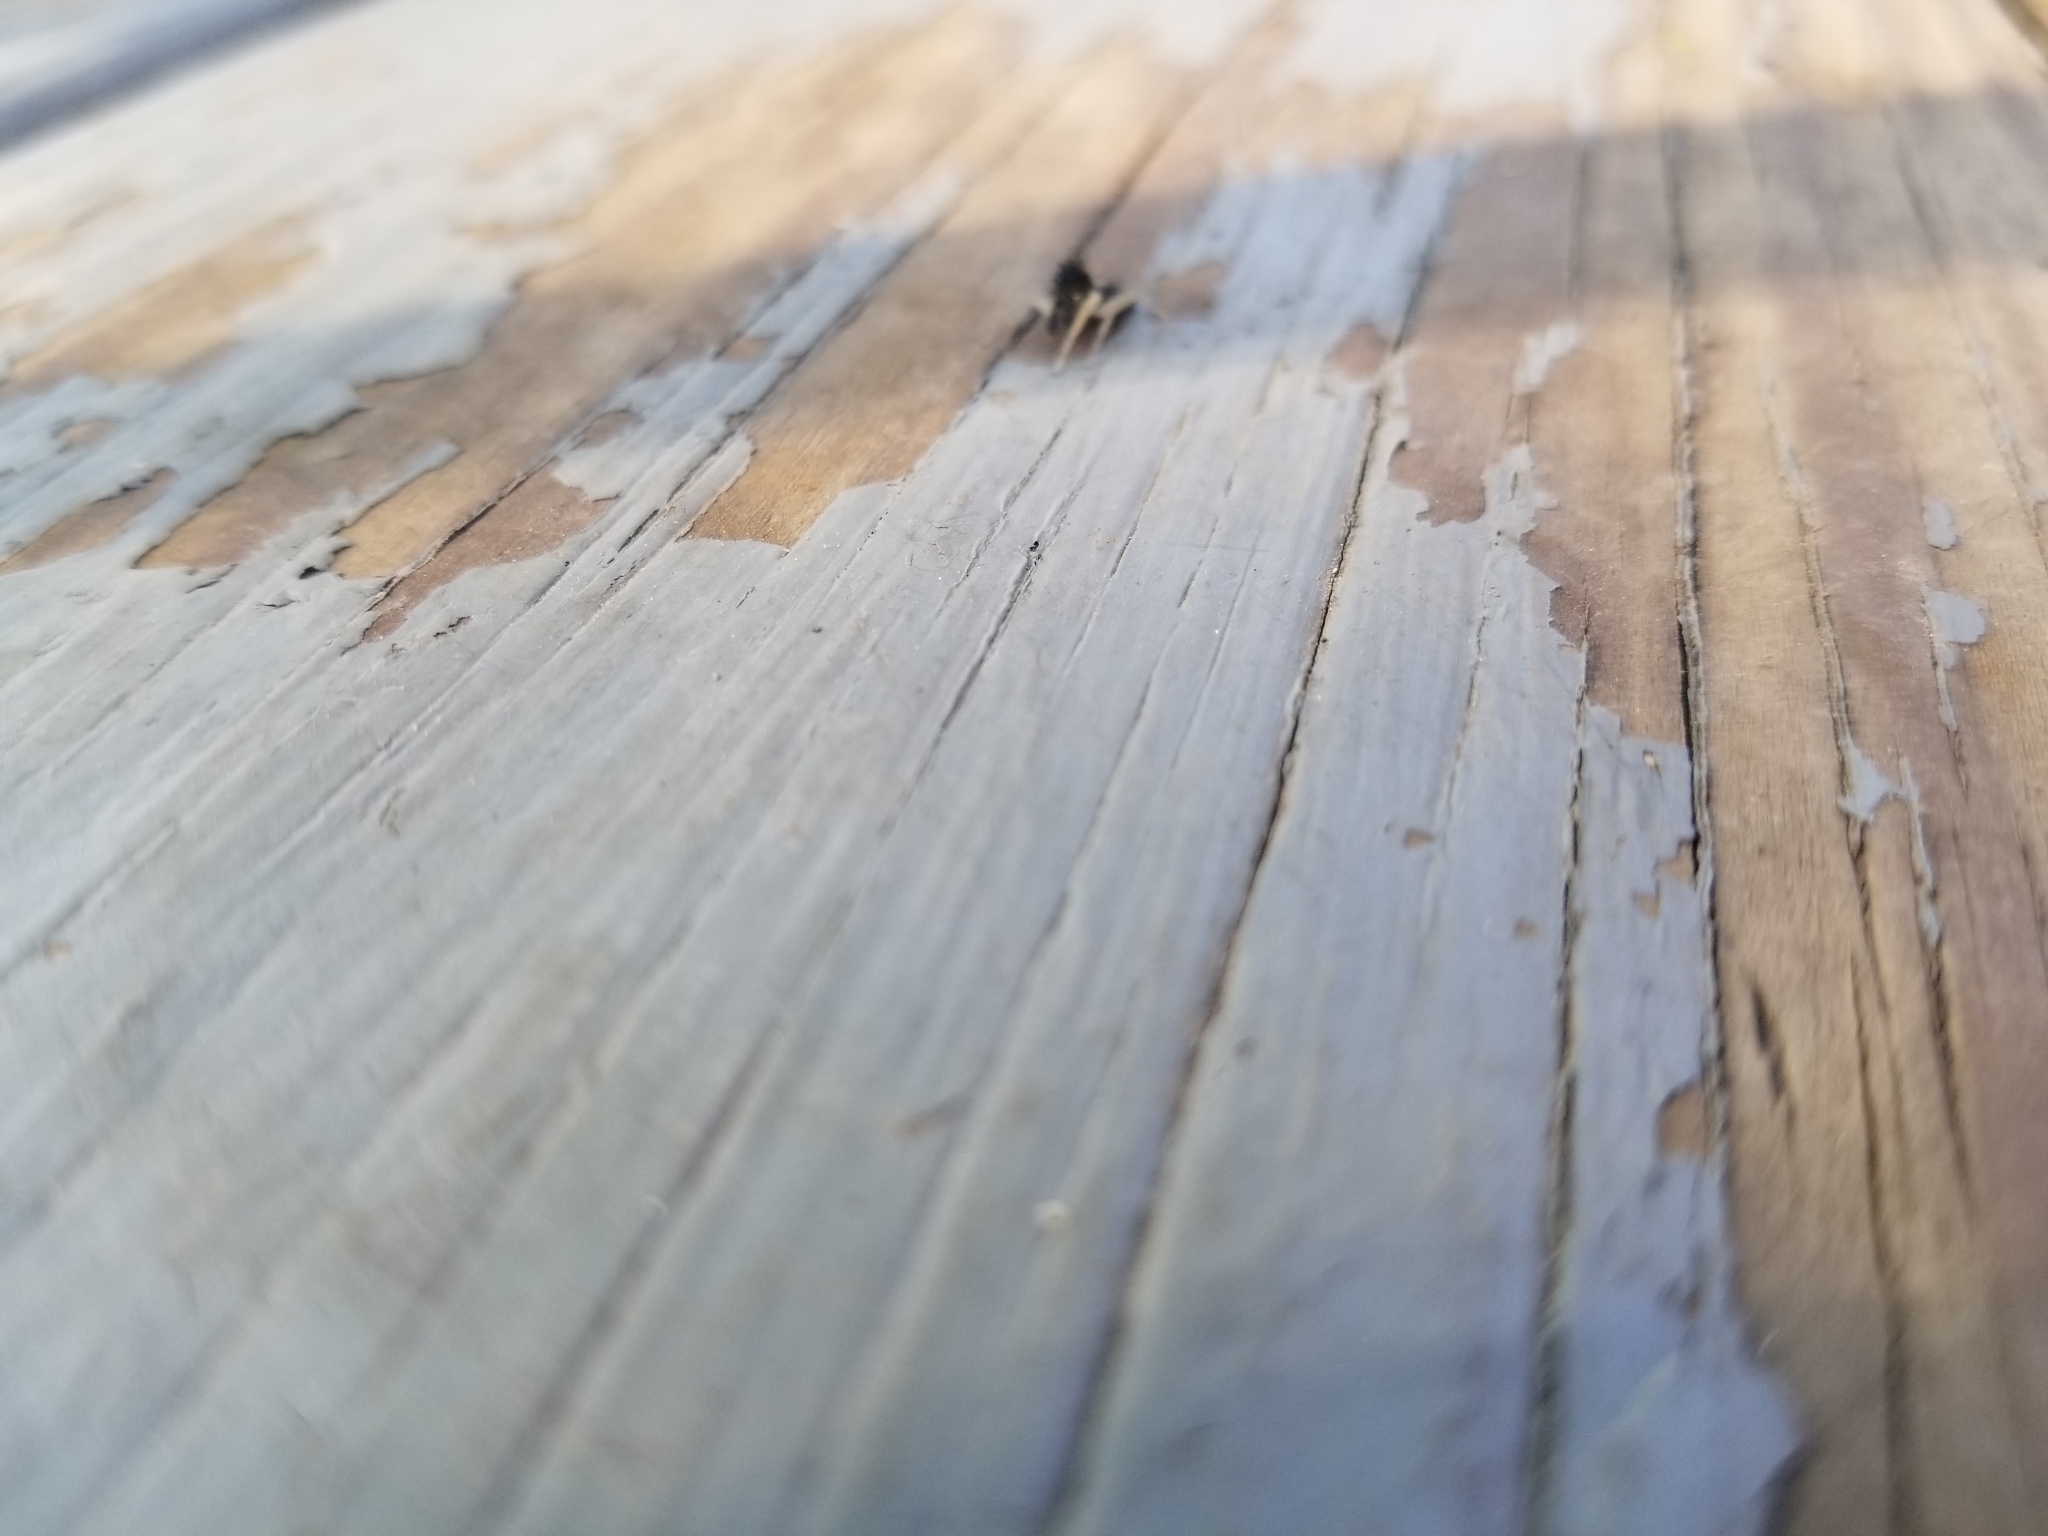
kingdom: Animalia
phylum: Arthropoda
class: Arachnida
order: Araneae
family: Salticidae
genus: Maevia
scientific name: Maevia inclemens
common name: Dimorphic jumper
